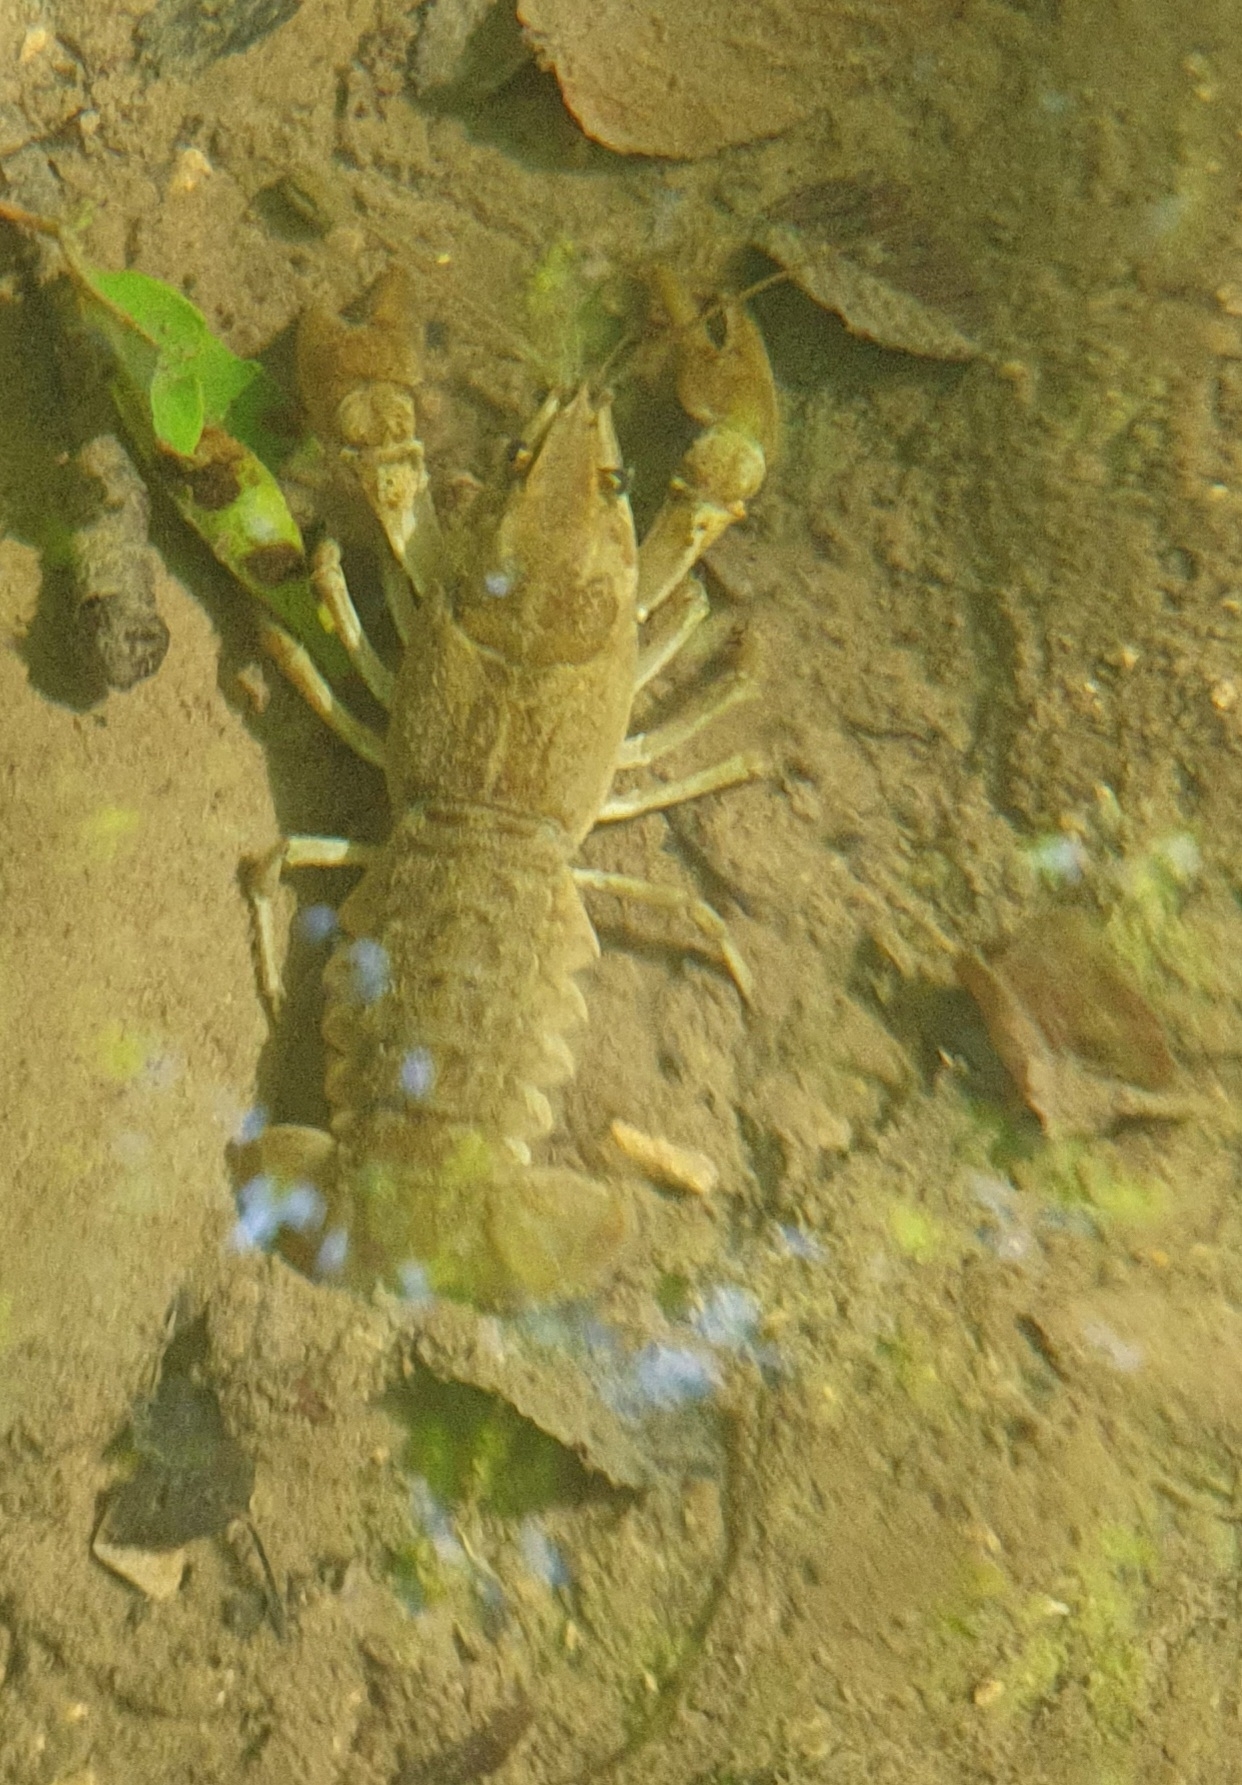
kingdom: Animalia
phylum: Arthropoda
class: Malacostraca
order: Decapoda
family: Astacidae
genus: Austropotamobius
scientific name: Austropotamobius pallipes
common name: White-clawed crayfish
